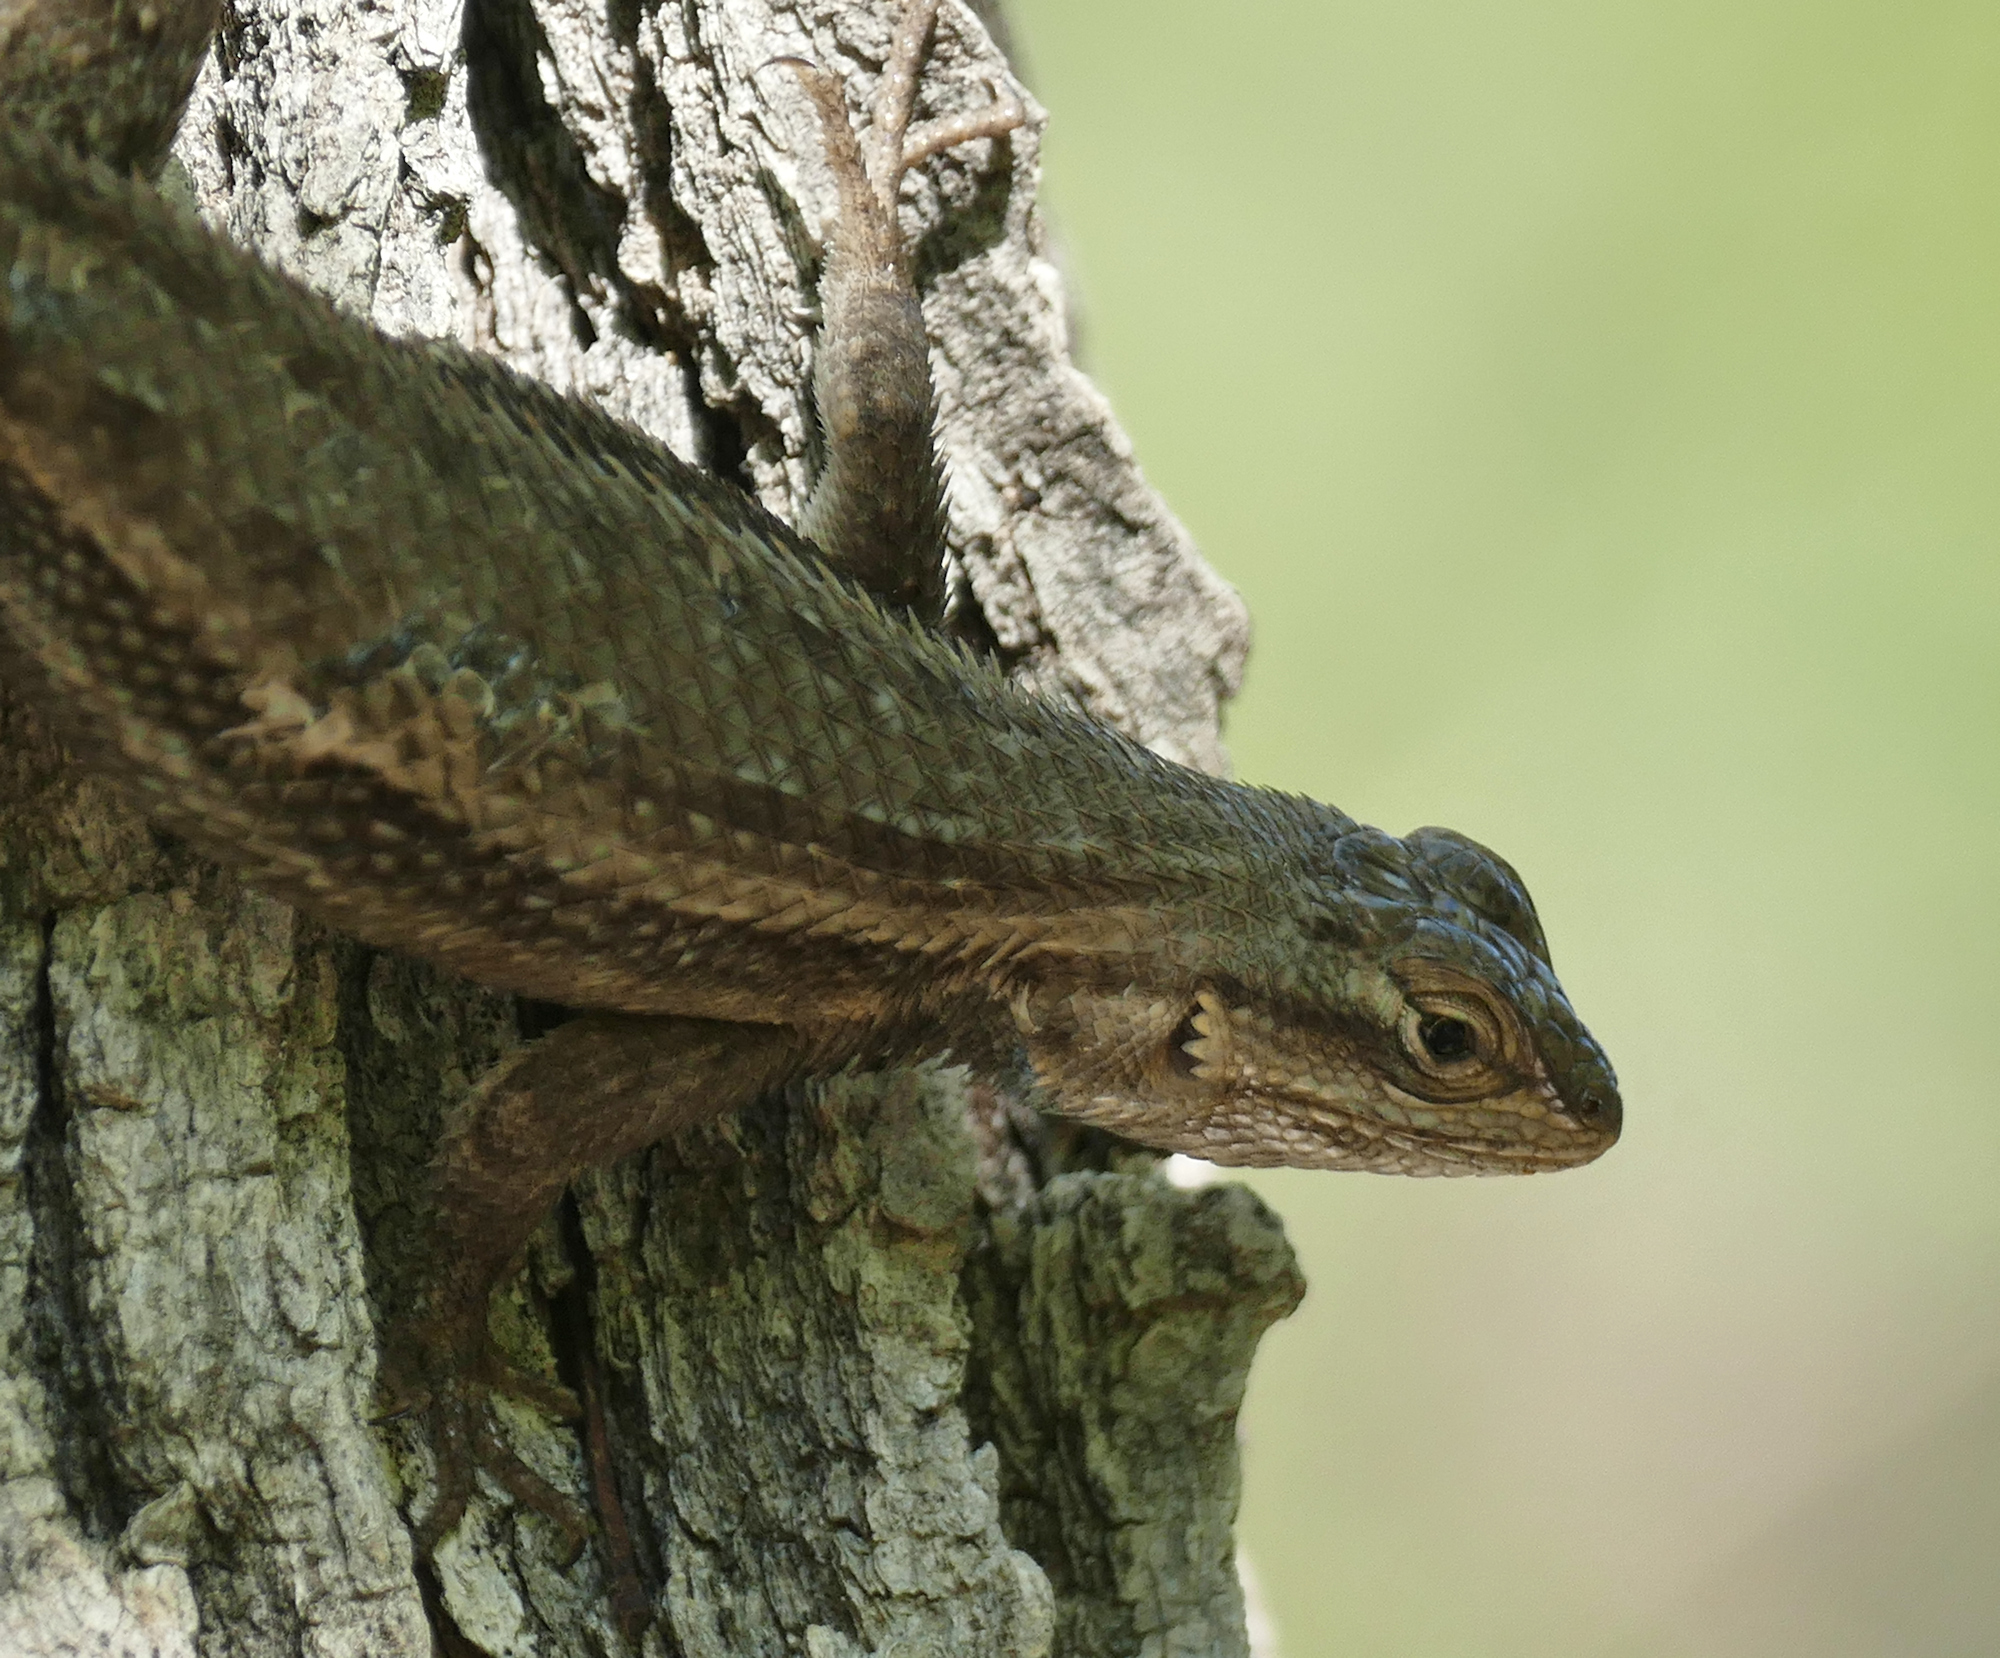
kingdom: Animalia
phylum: Chordata
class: Squamata
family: Phrynosomatidae
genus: Sceloporus
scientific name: Sceloporus cowlesi
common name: White sands prairie lizard
